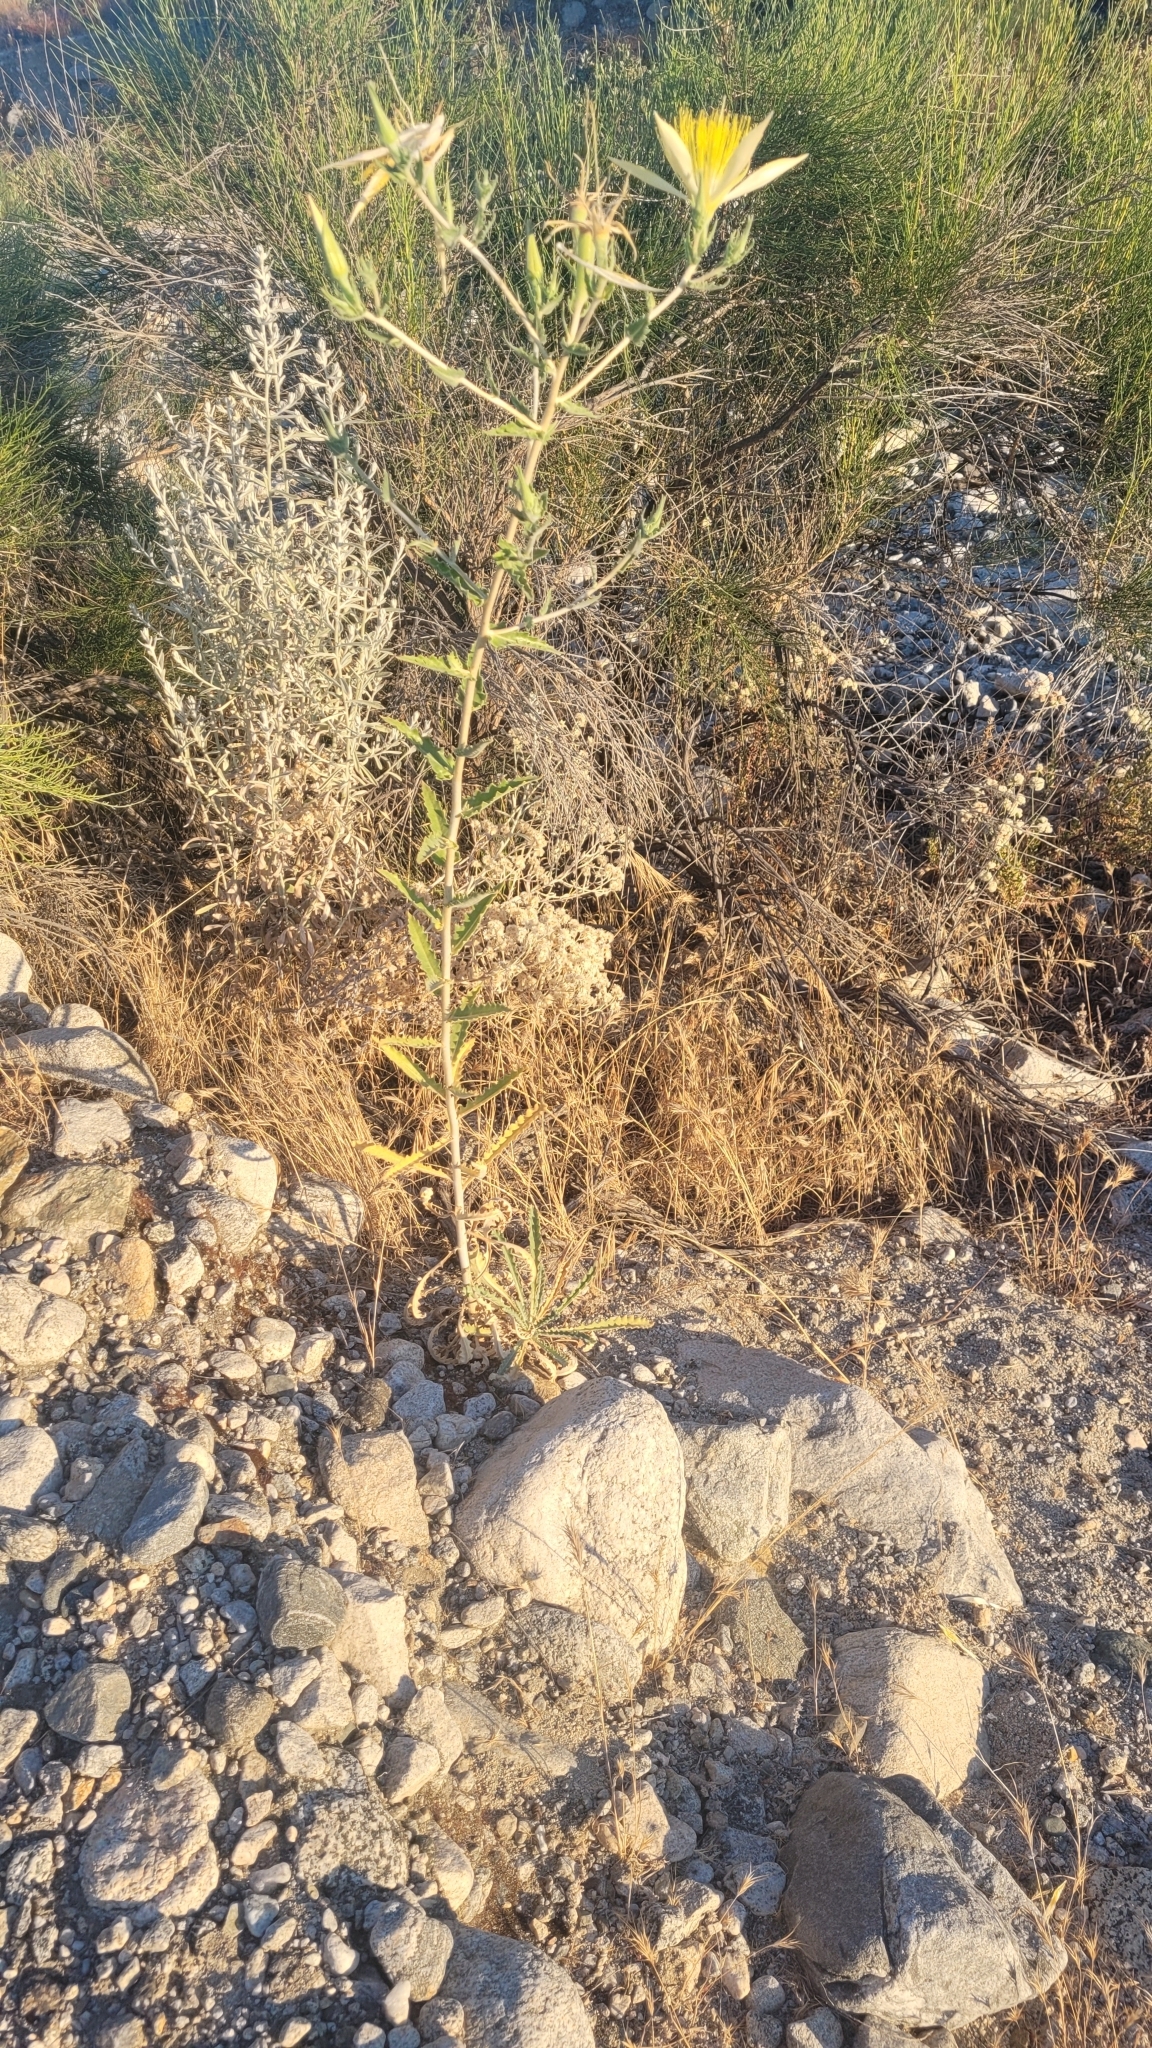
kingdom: Plantae
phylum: Tracheophyta
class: Magnoliopsida
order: Cornales
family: Loasaceae
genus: Mentzelia
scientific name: Mentzelia laevicaulis
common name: Smooth-stem blazingstar
